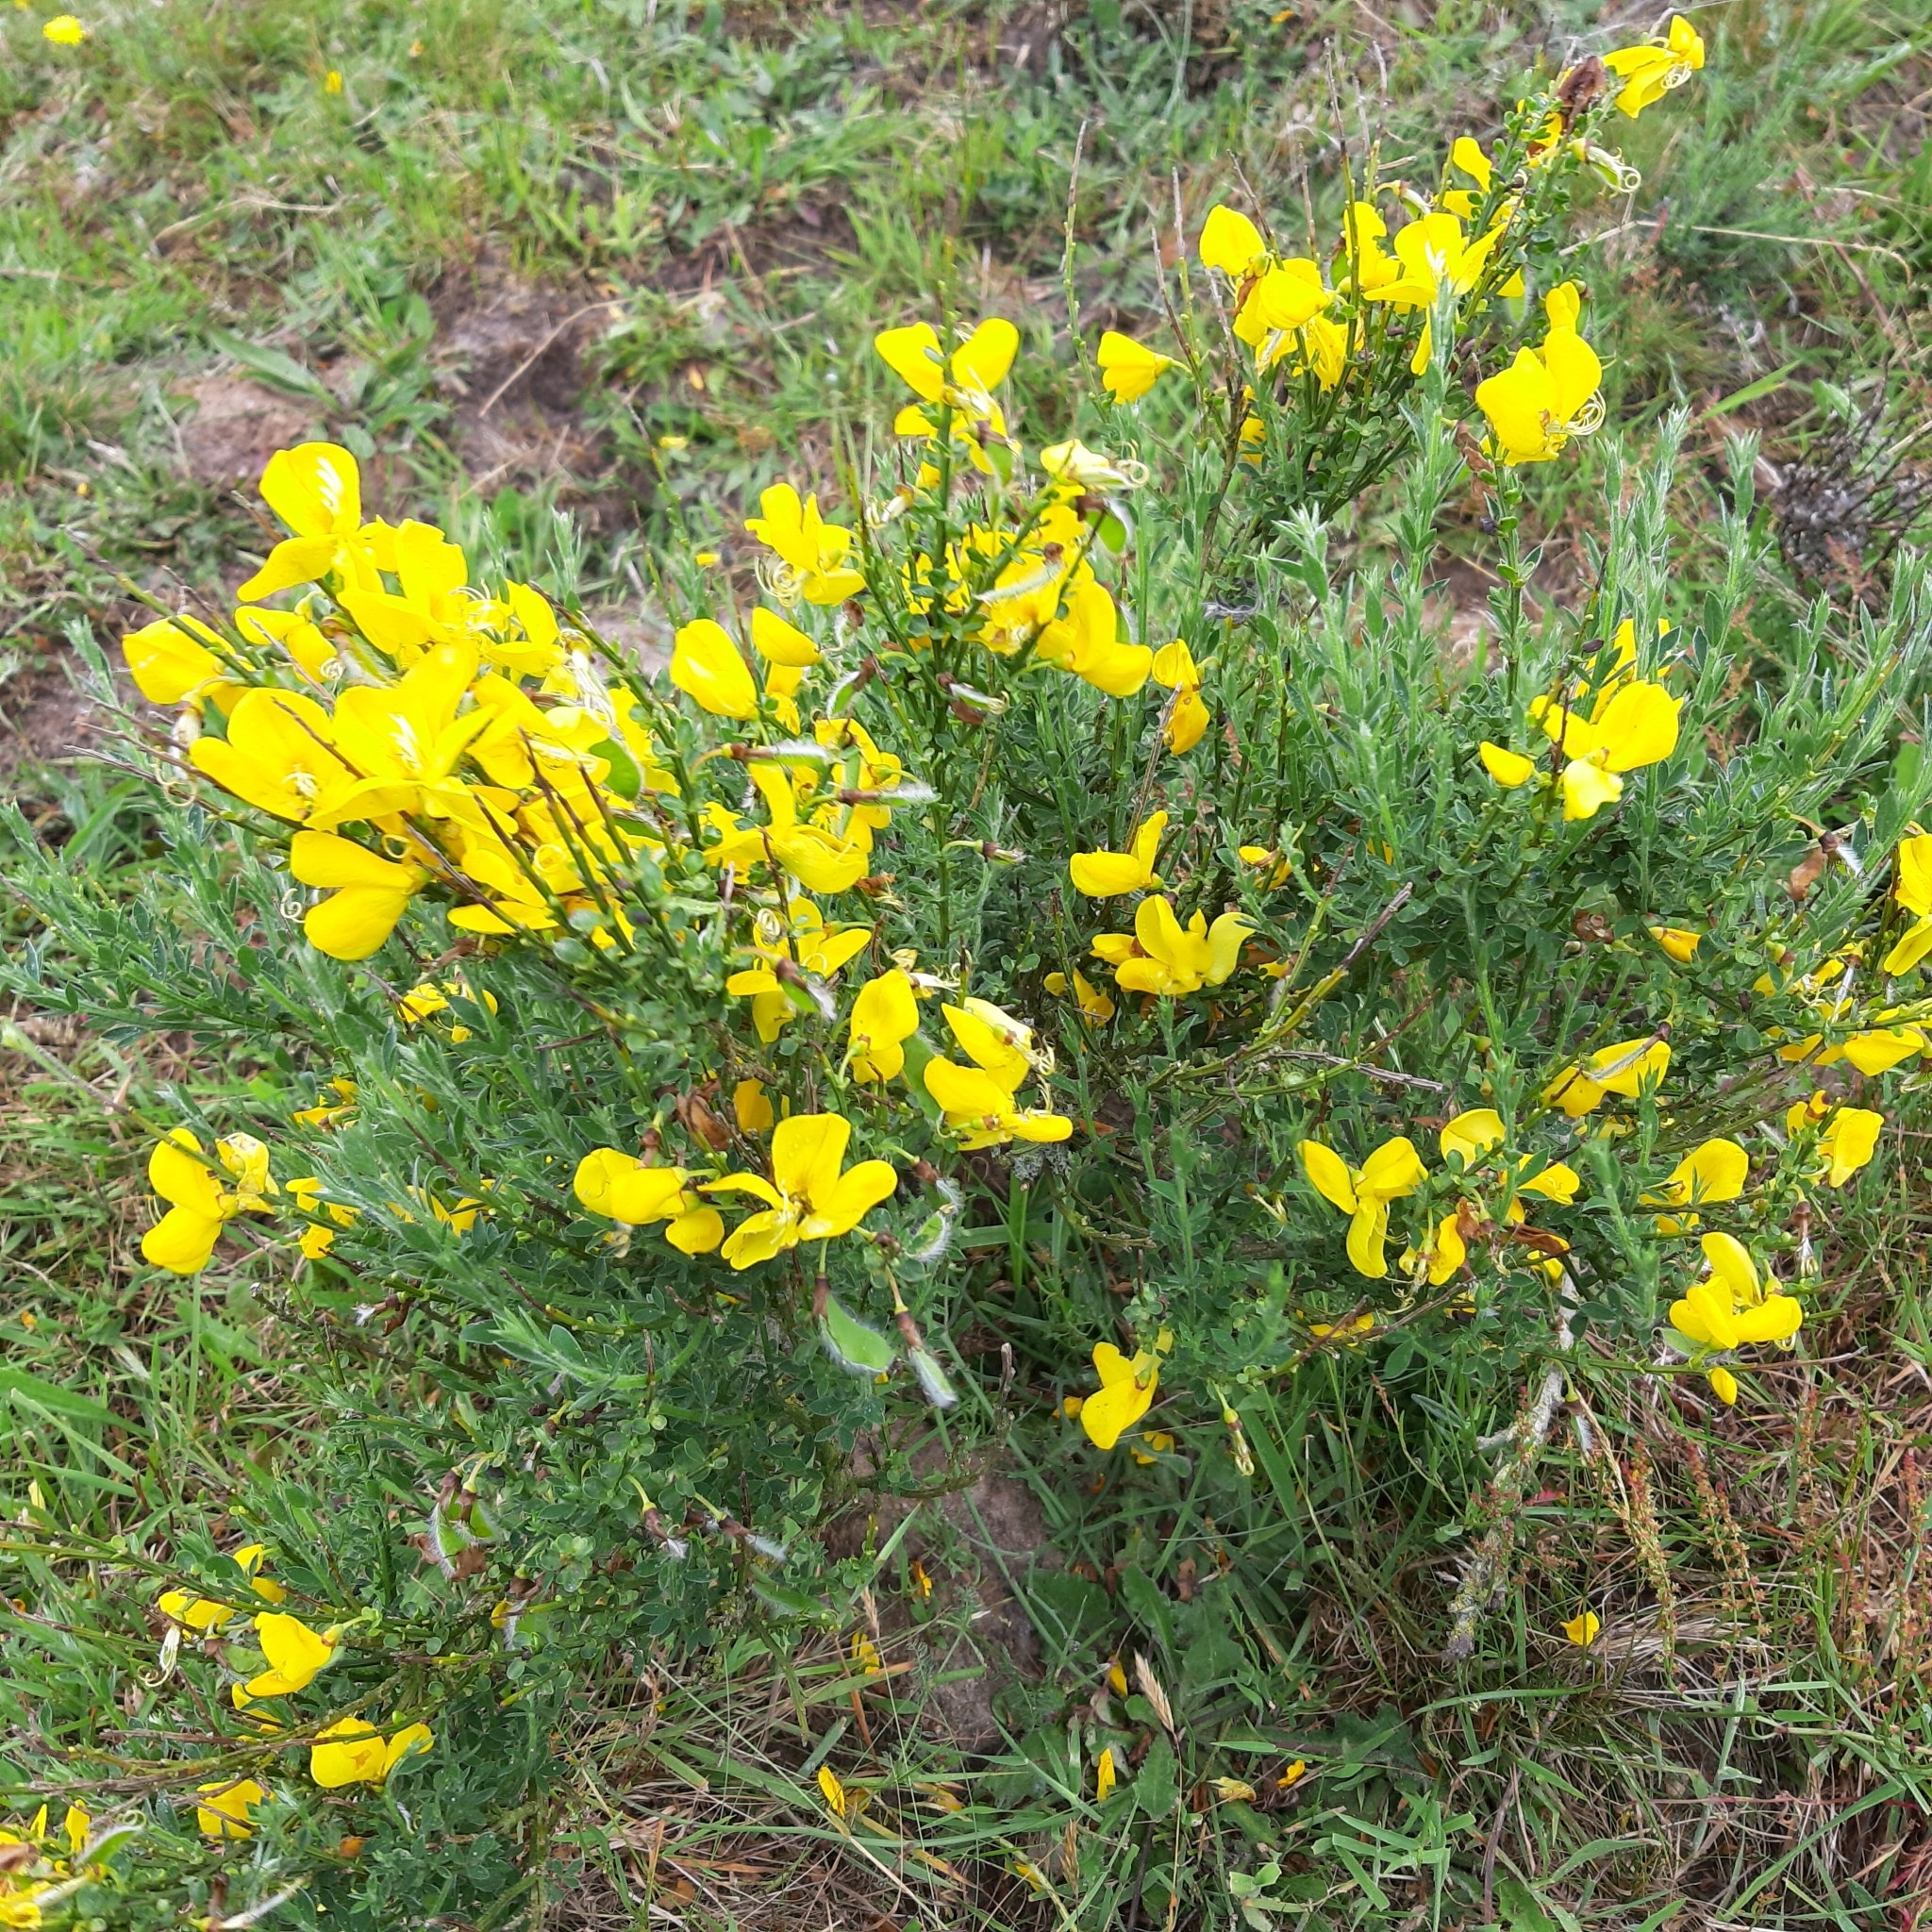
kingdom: Plantae
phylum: Tracheophyta
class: Magnoliopsida
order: Fabales
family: Fabaceae
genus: Cytisus
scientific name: Cytisus scoparius
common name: Scotch broom
